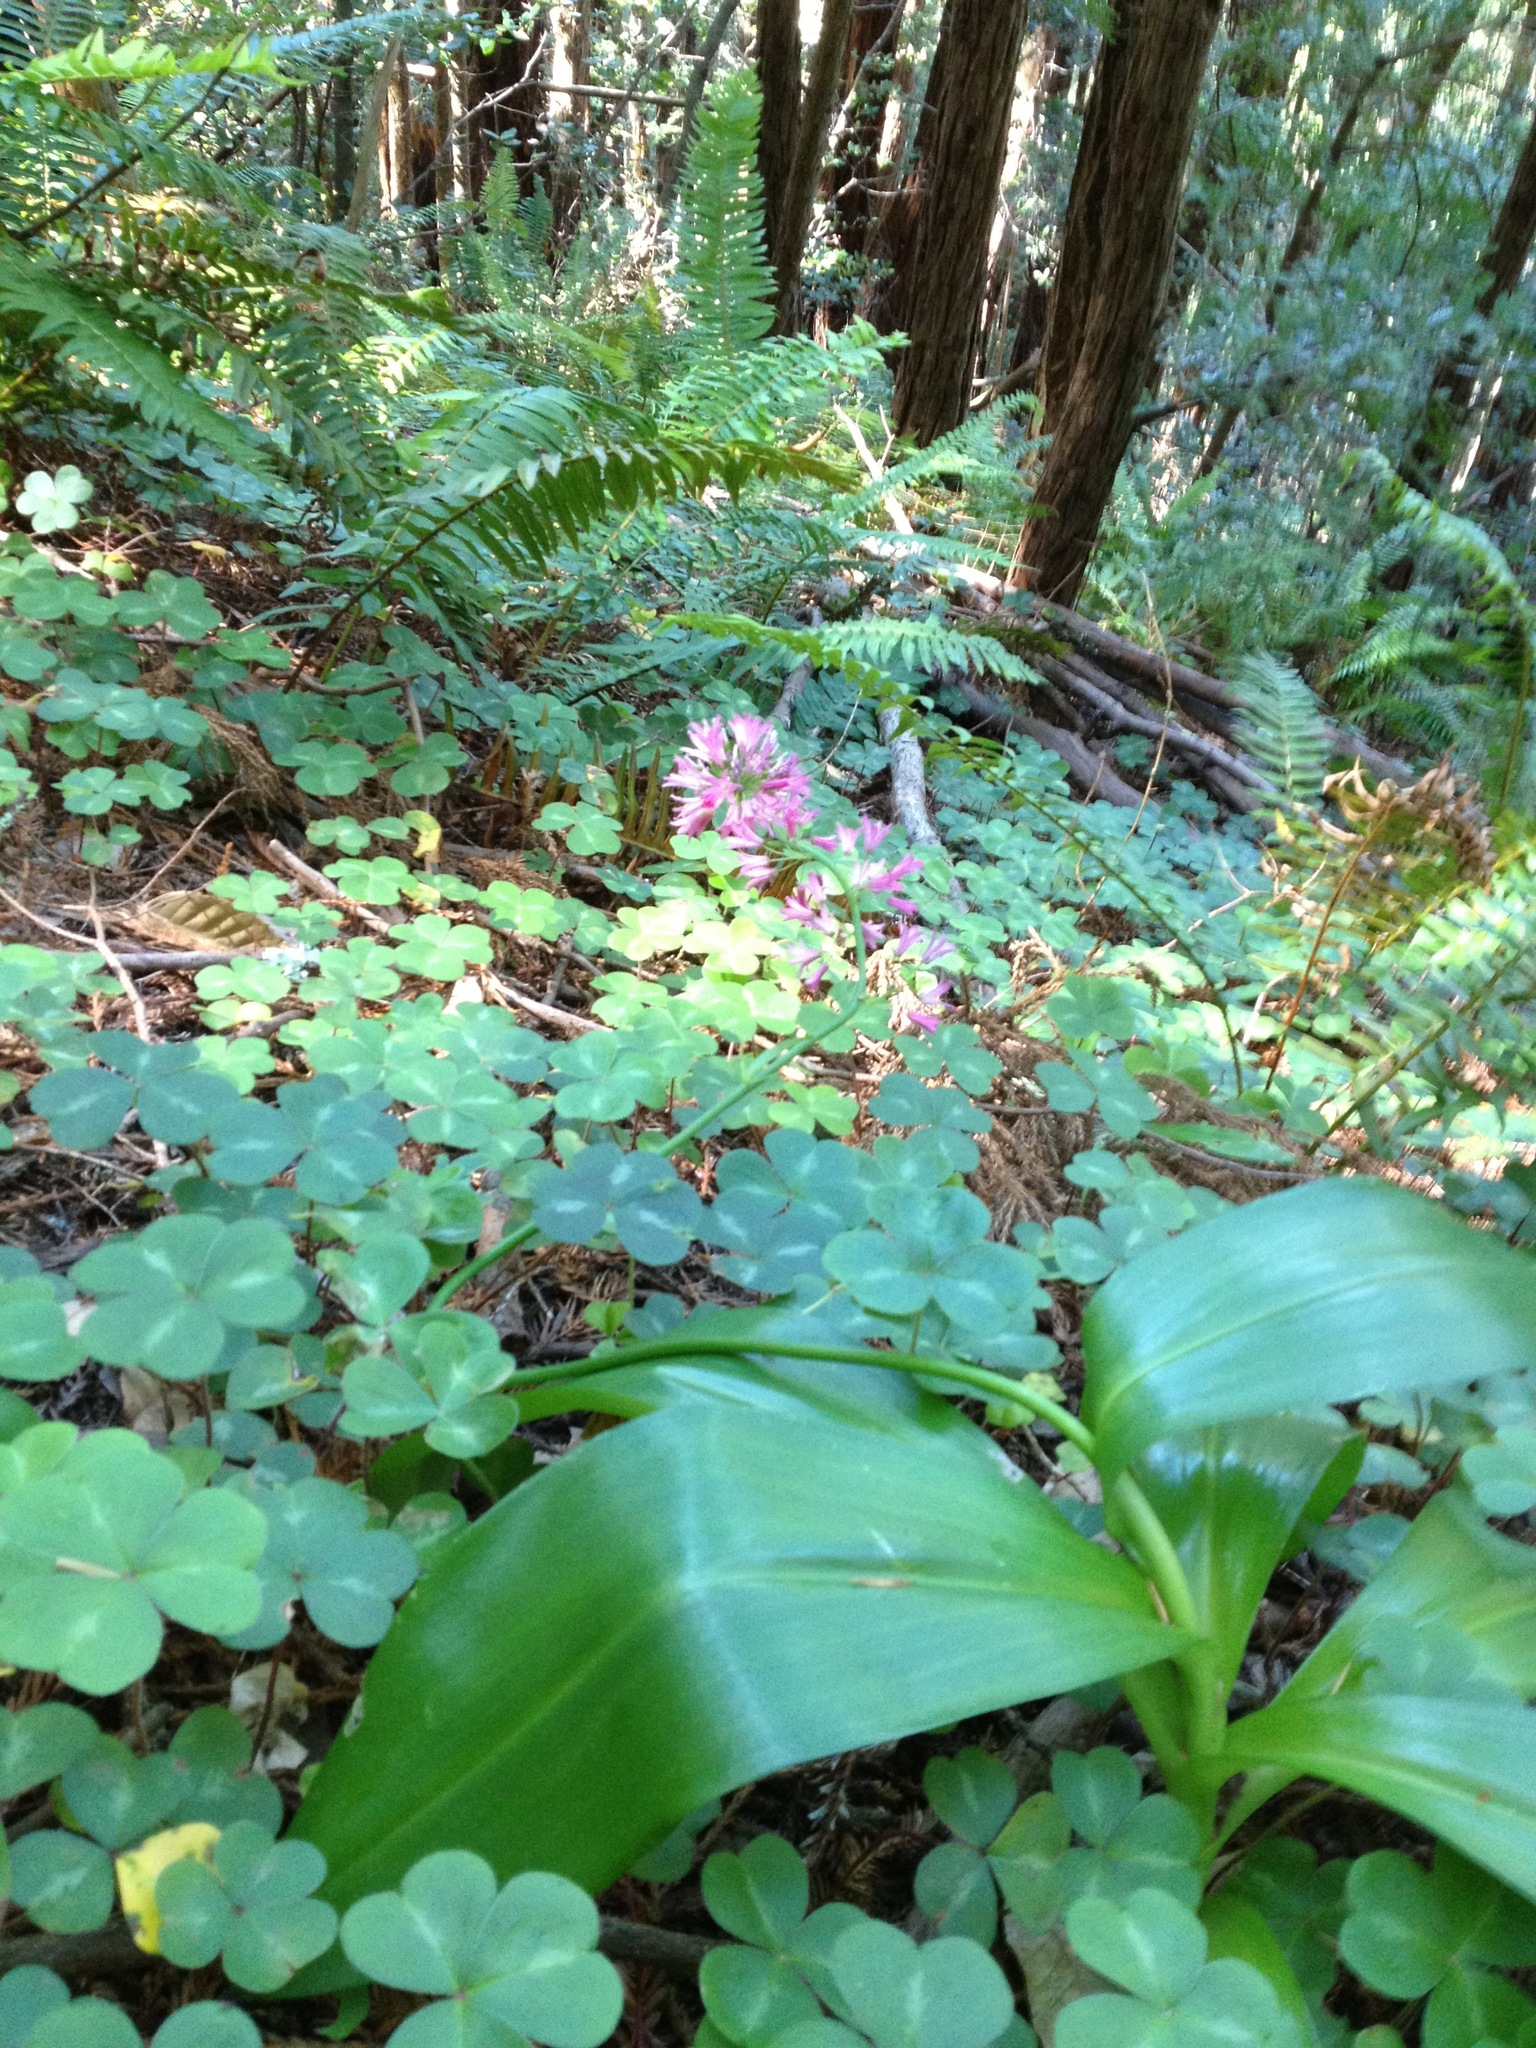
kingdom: Plantae
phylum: Tracheophyta
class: Liliopsida
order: Liliales
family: Liliaceae
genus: Clintonia
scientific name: Clintonia andrewsiana
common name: Red clintonia
